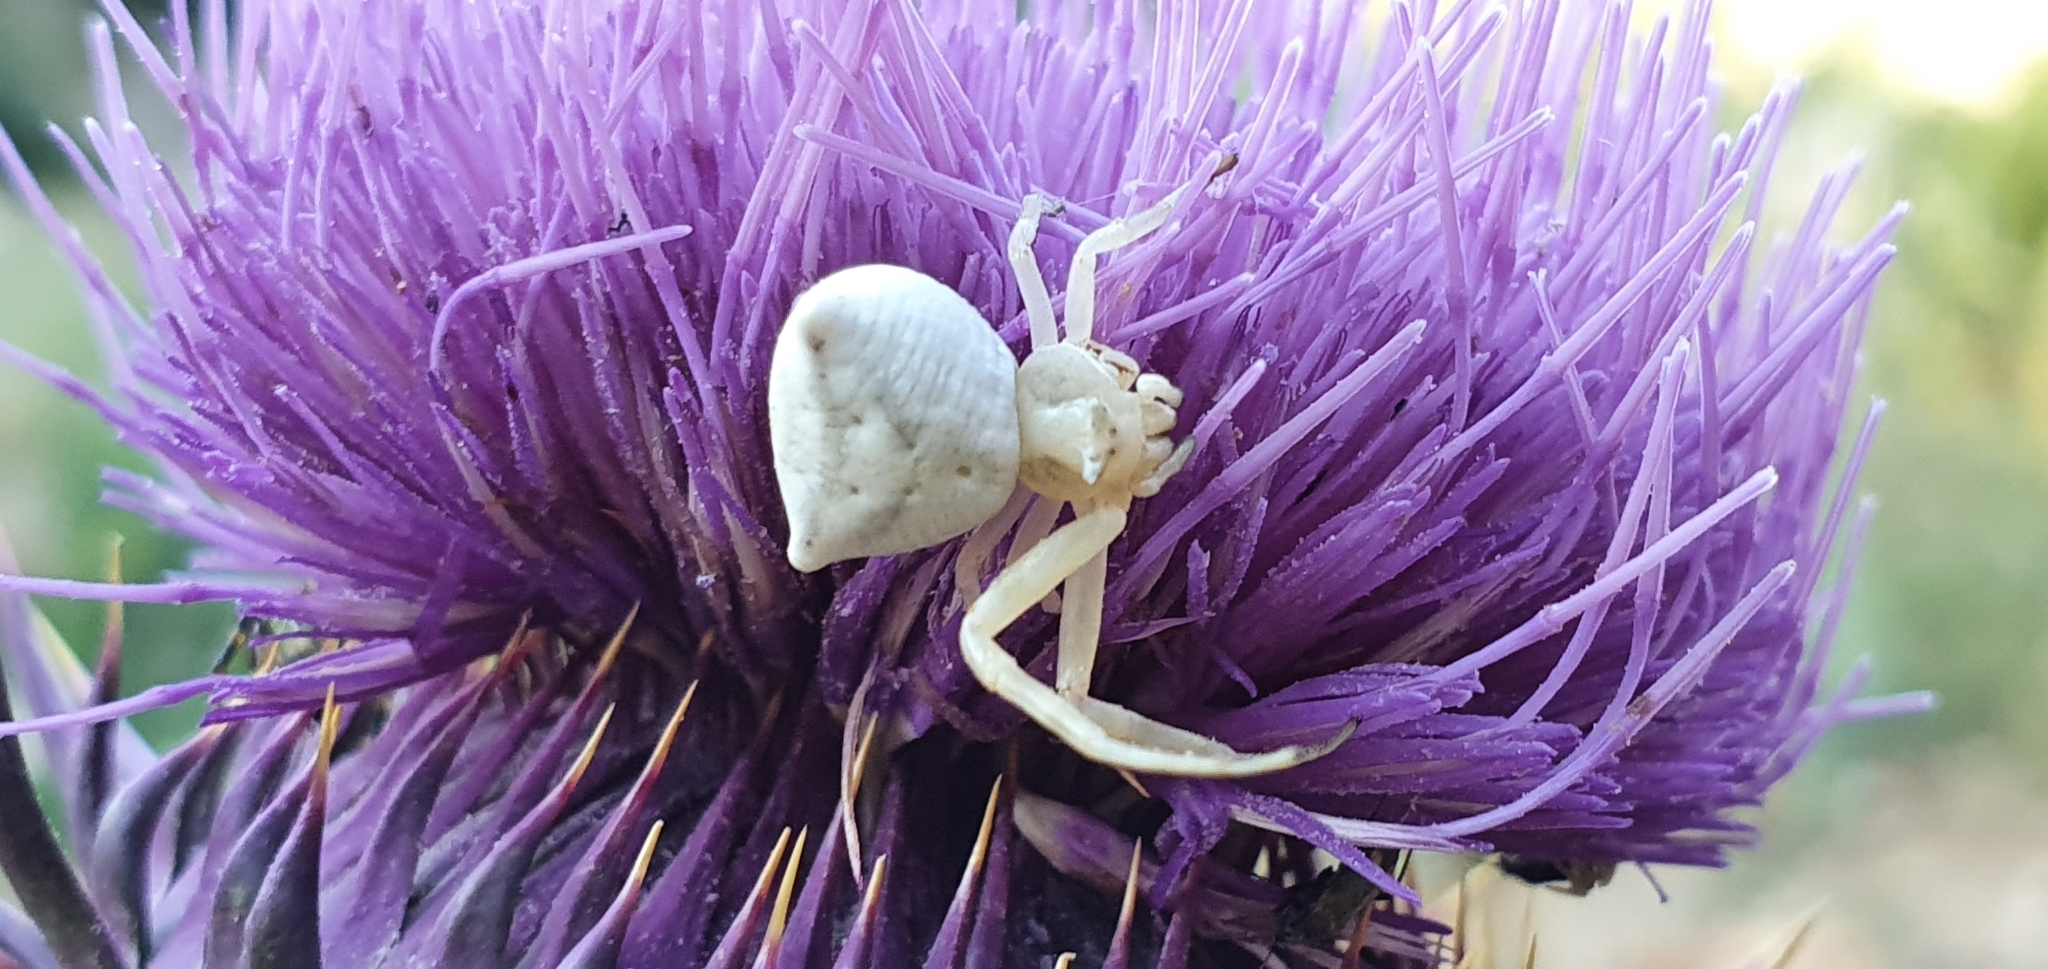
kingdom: Animalia
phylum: Arthropoda
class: Arachnida
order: Araneae
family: Thomisidae
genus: Thomisus
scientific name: Thomisus onustus
